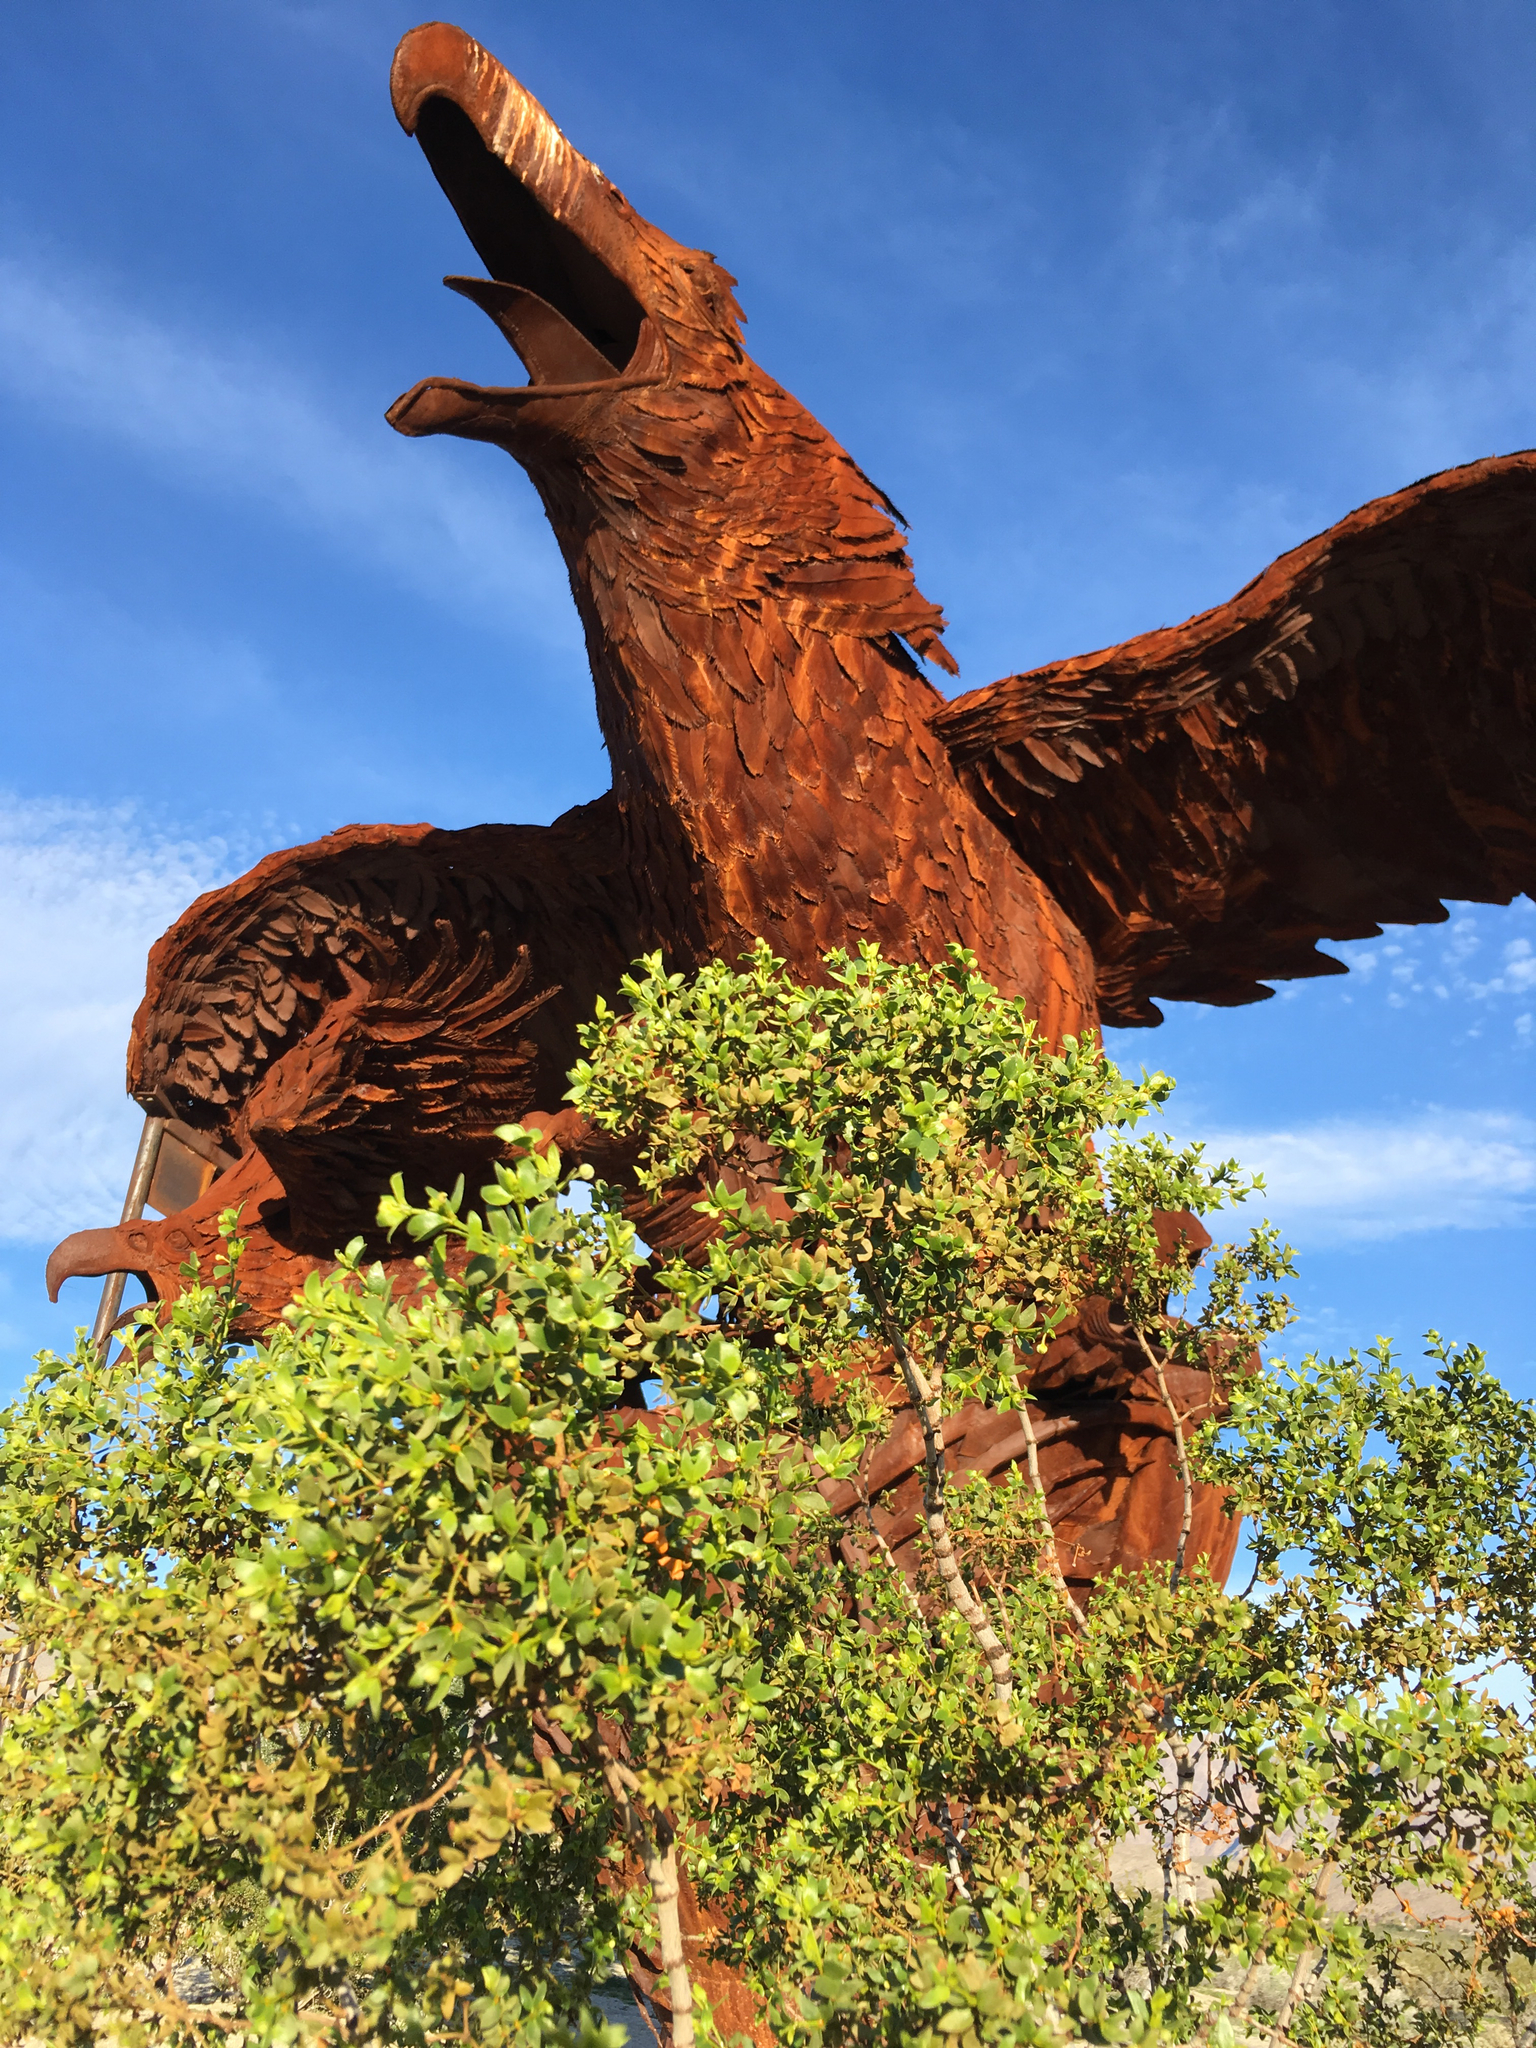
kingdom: Plantae
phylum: Tracheophyta
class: Magnoliopsida
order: Zygophyllales
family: Zygophyllaceae
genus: Larrea
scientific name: Larrea tridentata
